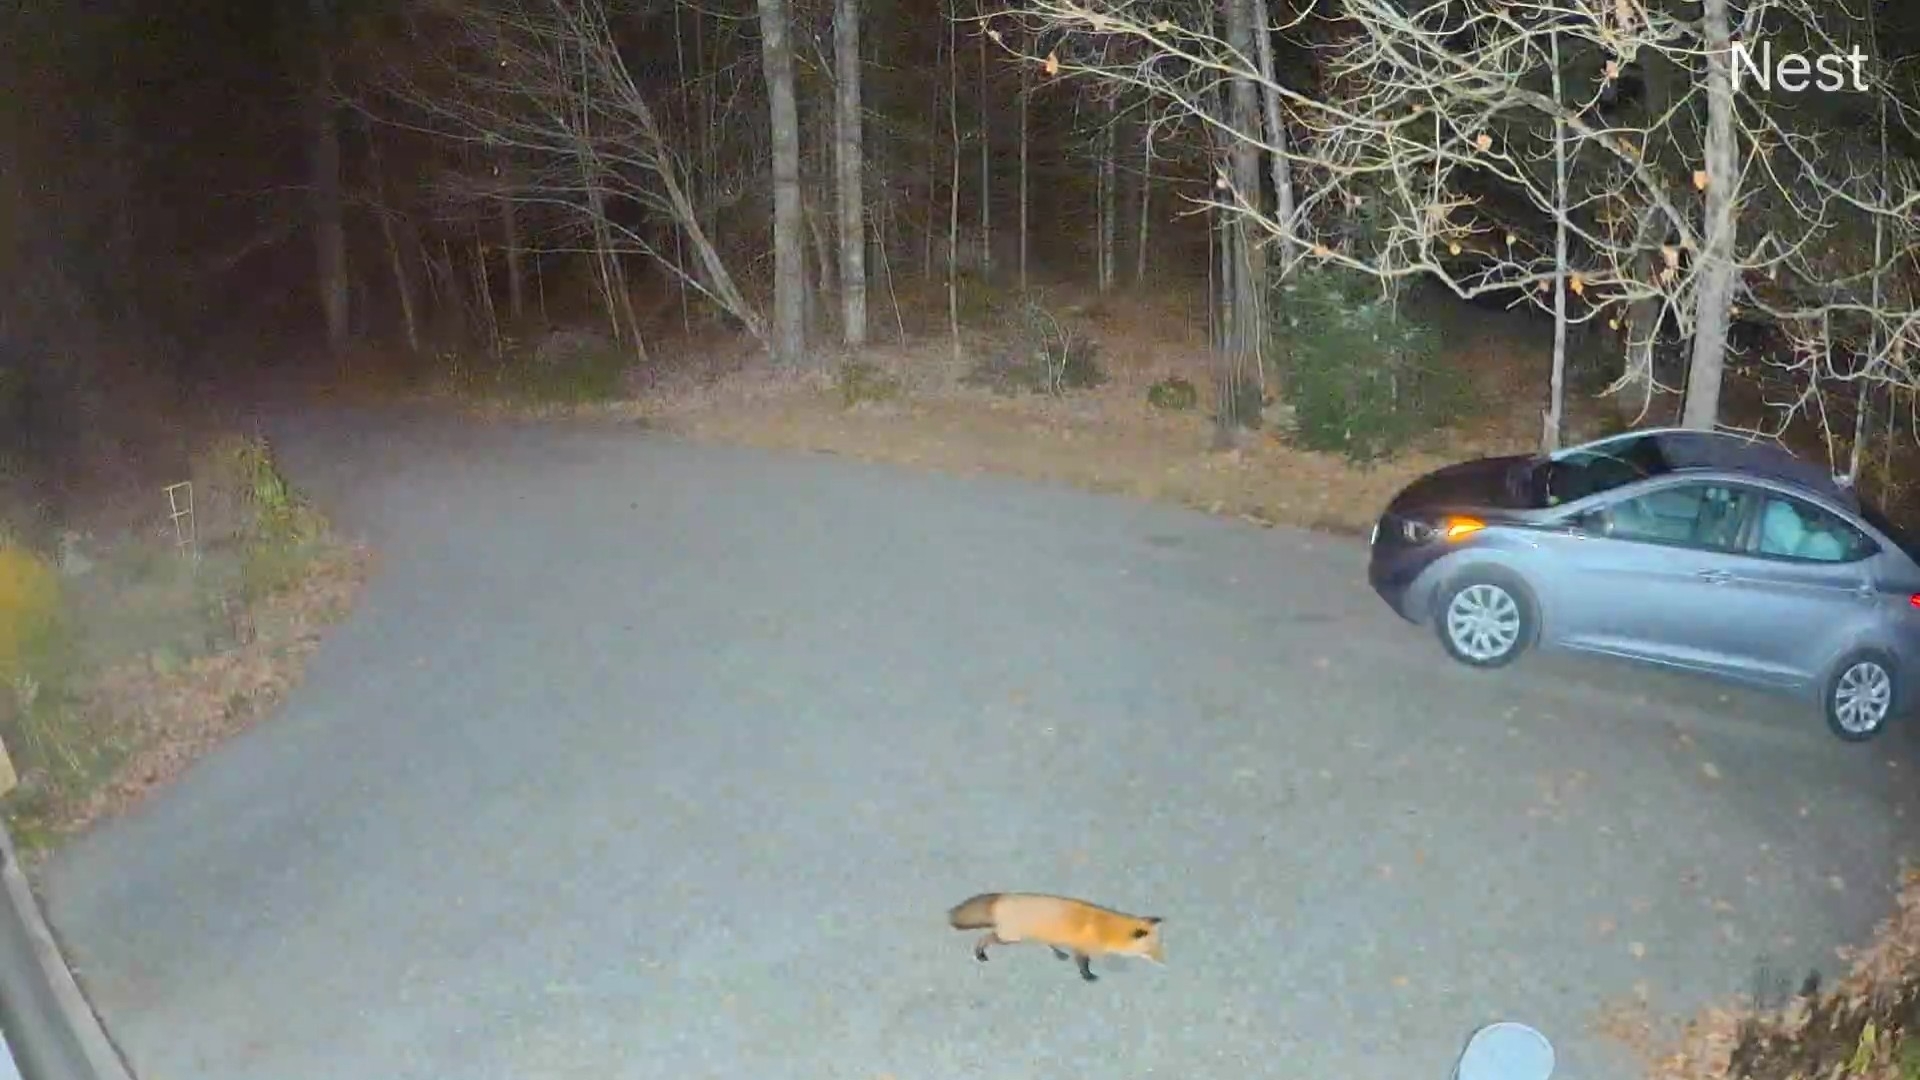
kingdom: Animalia
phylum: Chordata
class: Mammalia
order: Carnivora
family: Canidae
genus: Vulpes
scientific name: Vulpes vulpes
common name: Red fox
